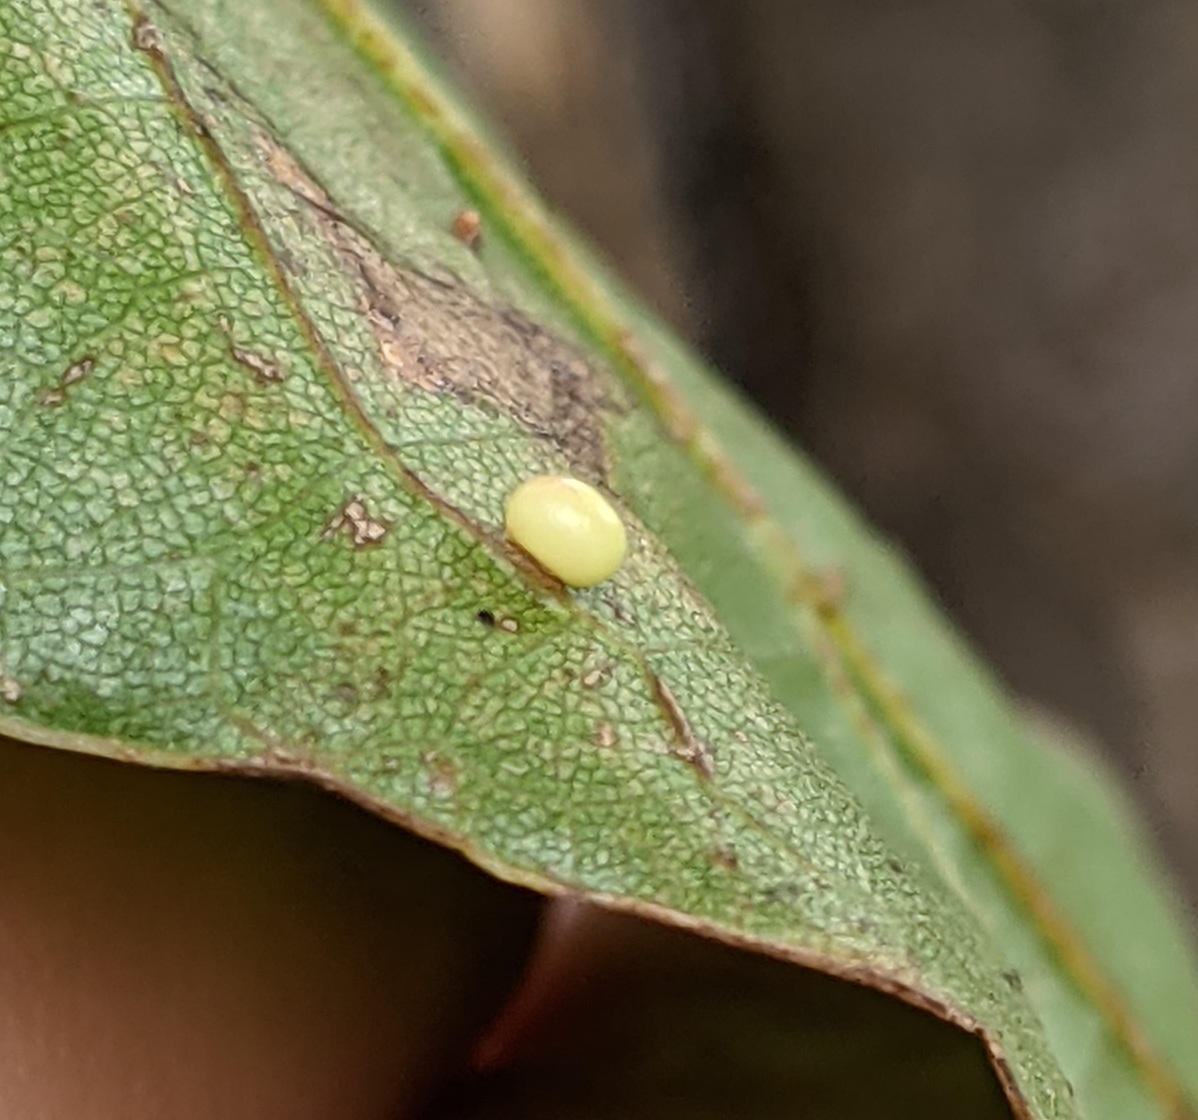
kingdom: Animalia
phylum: Arthropoda
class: Insecta
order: Hymenoptera
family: Cynipidae
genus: Zopheroteras
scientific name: Zopheroteras
